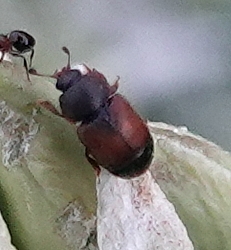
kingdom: Animalia
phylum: Arthropoda
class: Insecta
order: Coleoptera
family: Nitidulidae
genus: Carpophilus
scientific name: Carpophilus
